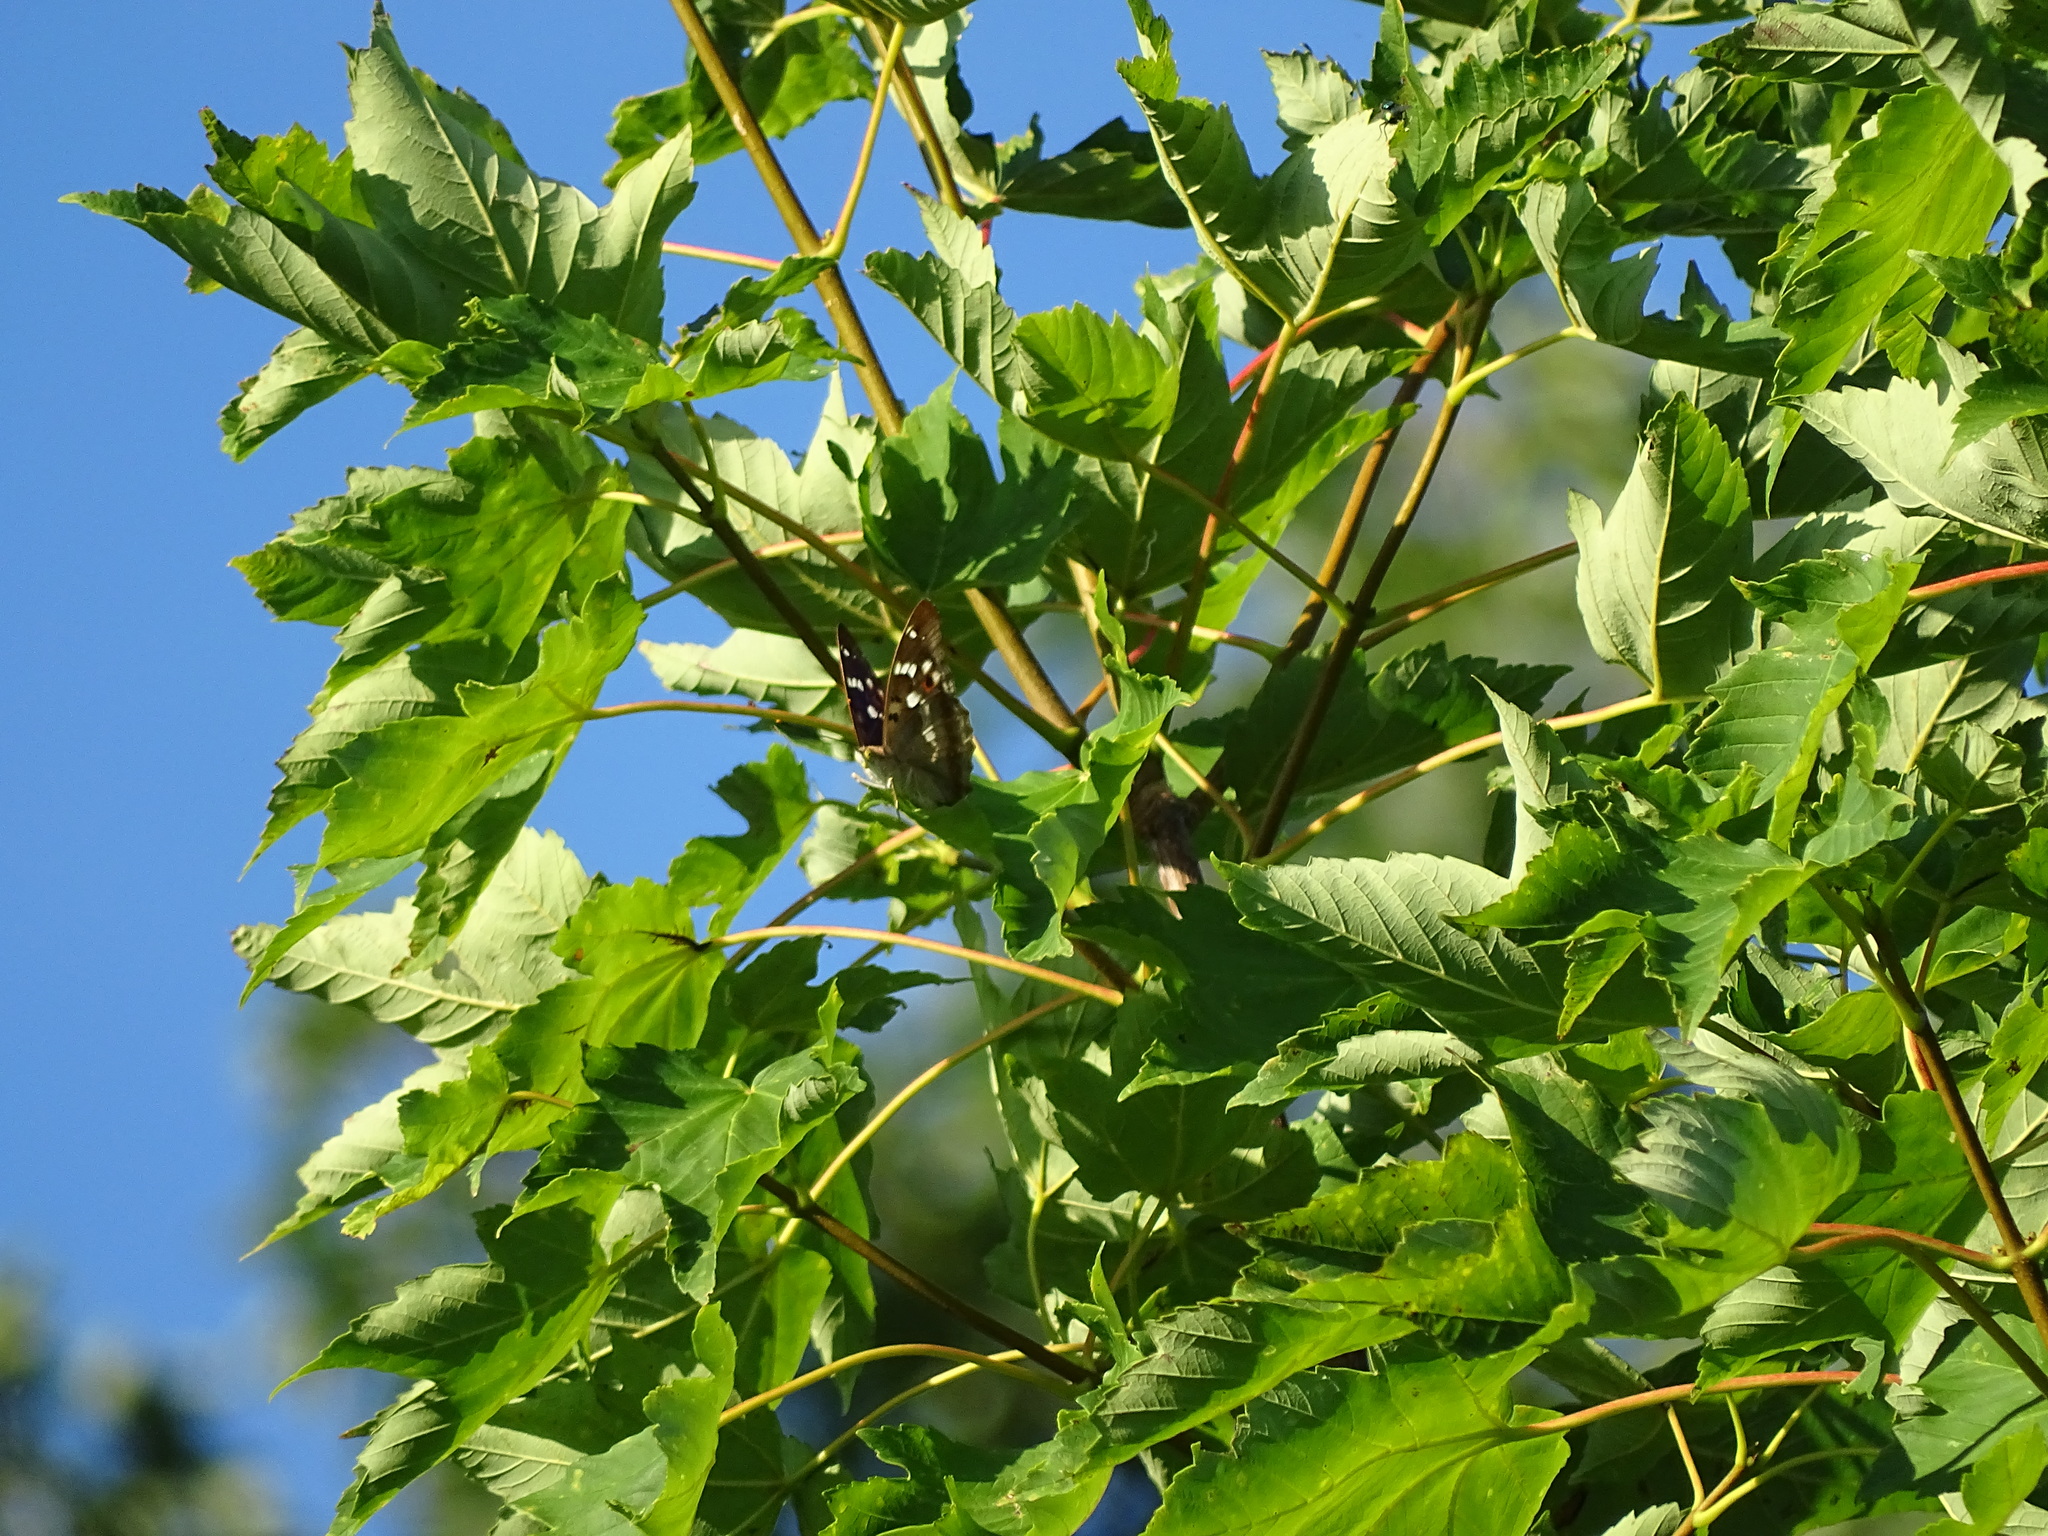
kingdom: Animalia
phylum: Arthropoda
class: Insecta
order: Lepidoptera
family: Nymphalidae
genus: Apatura
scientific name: Apatura ilia
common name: Lesser purple emperor
